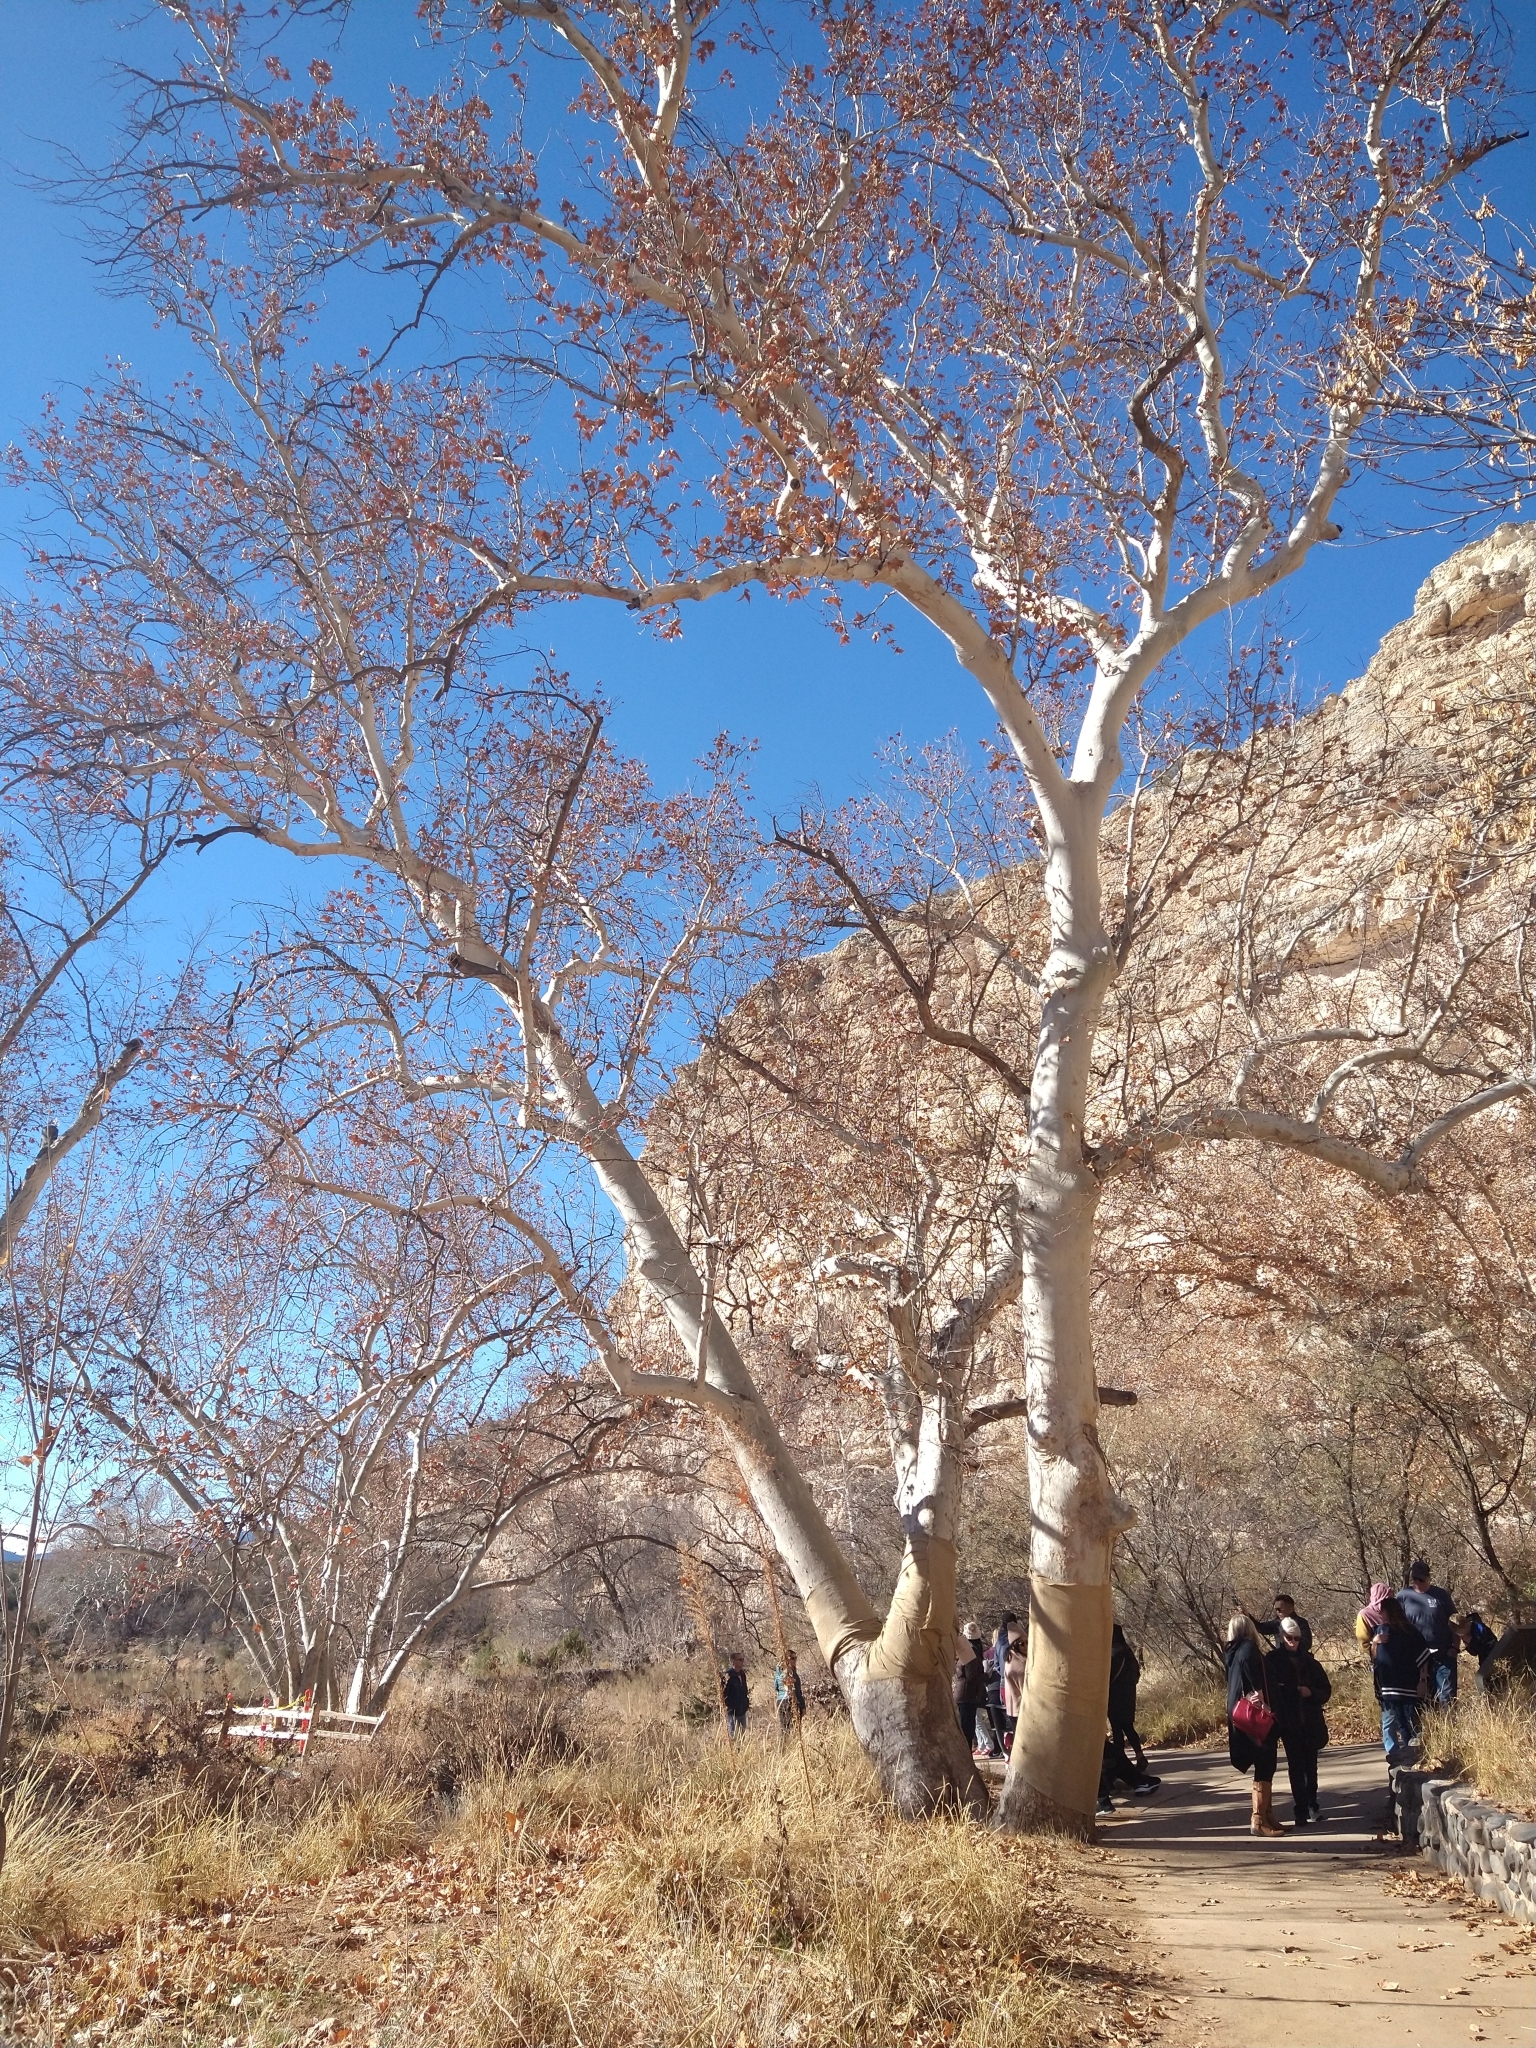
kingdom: Plantae
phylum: Tracheophyta
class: Magnoliopsida
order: Proteales
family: Platanaceae
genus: Platanus
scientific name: Platanus wrightii
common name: Arizona sycamore
